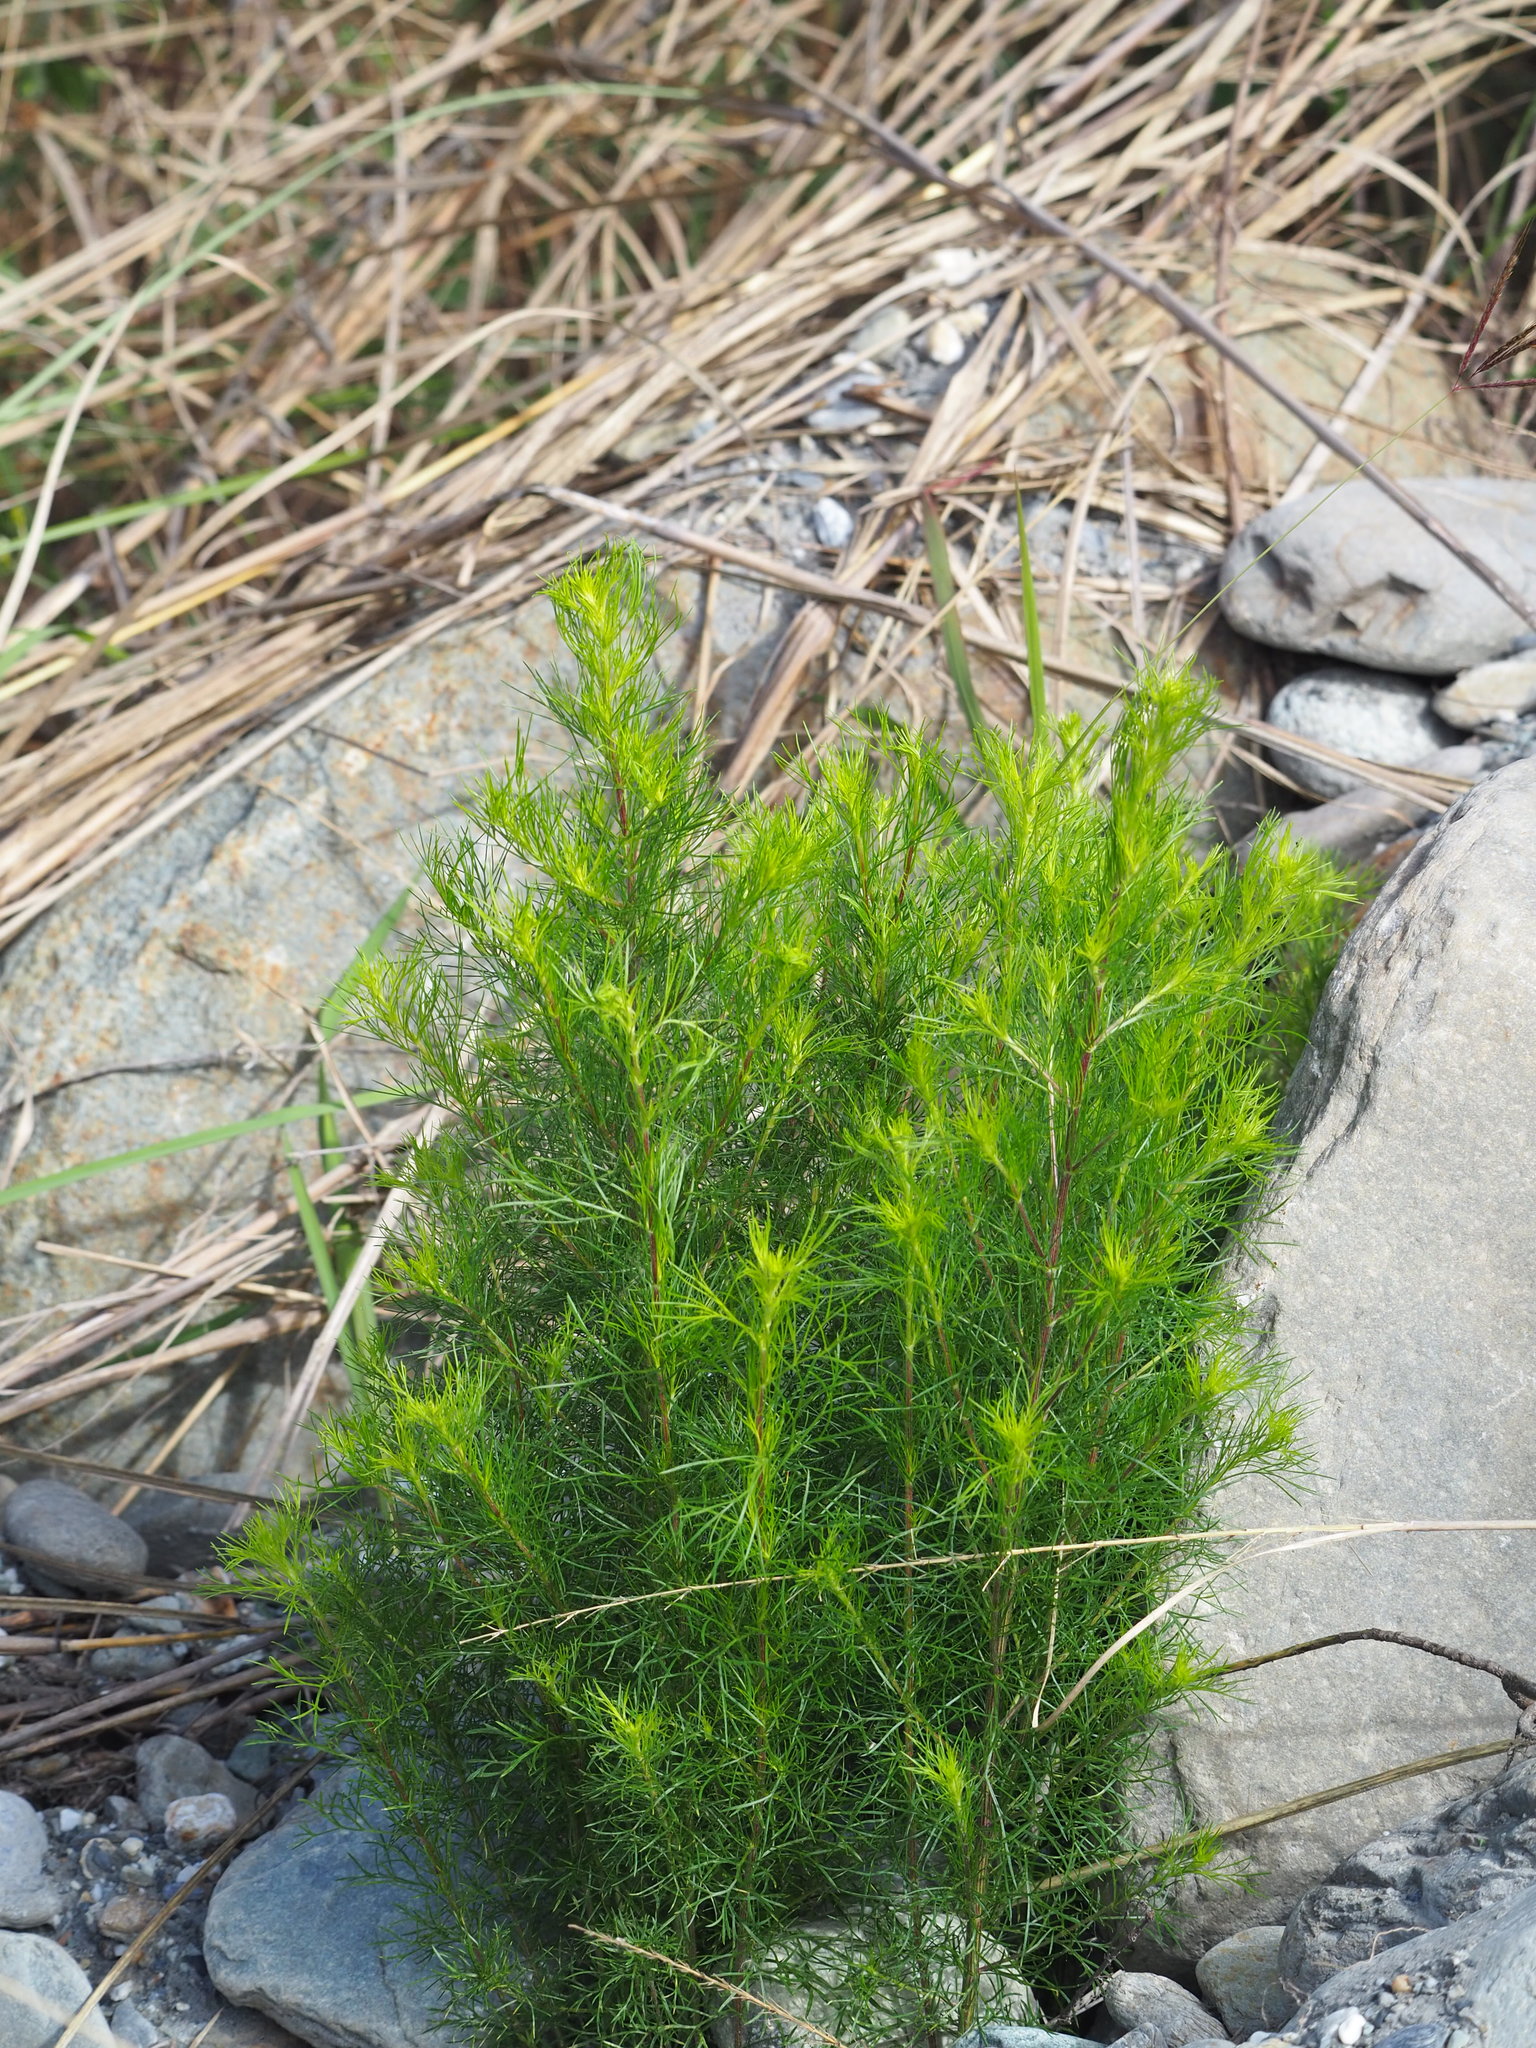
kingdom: Plantae
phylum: Tracheophyta
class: Magnoliopsida
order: Asterales
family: Asteraceae
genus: Artemisia
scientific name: Artemisia capillaris
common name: Yin-chen wormwood
